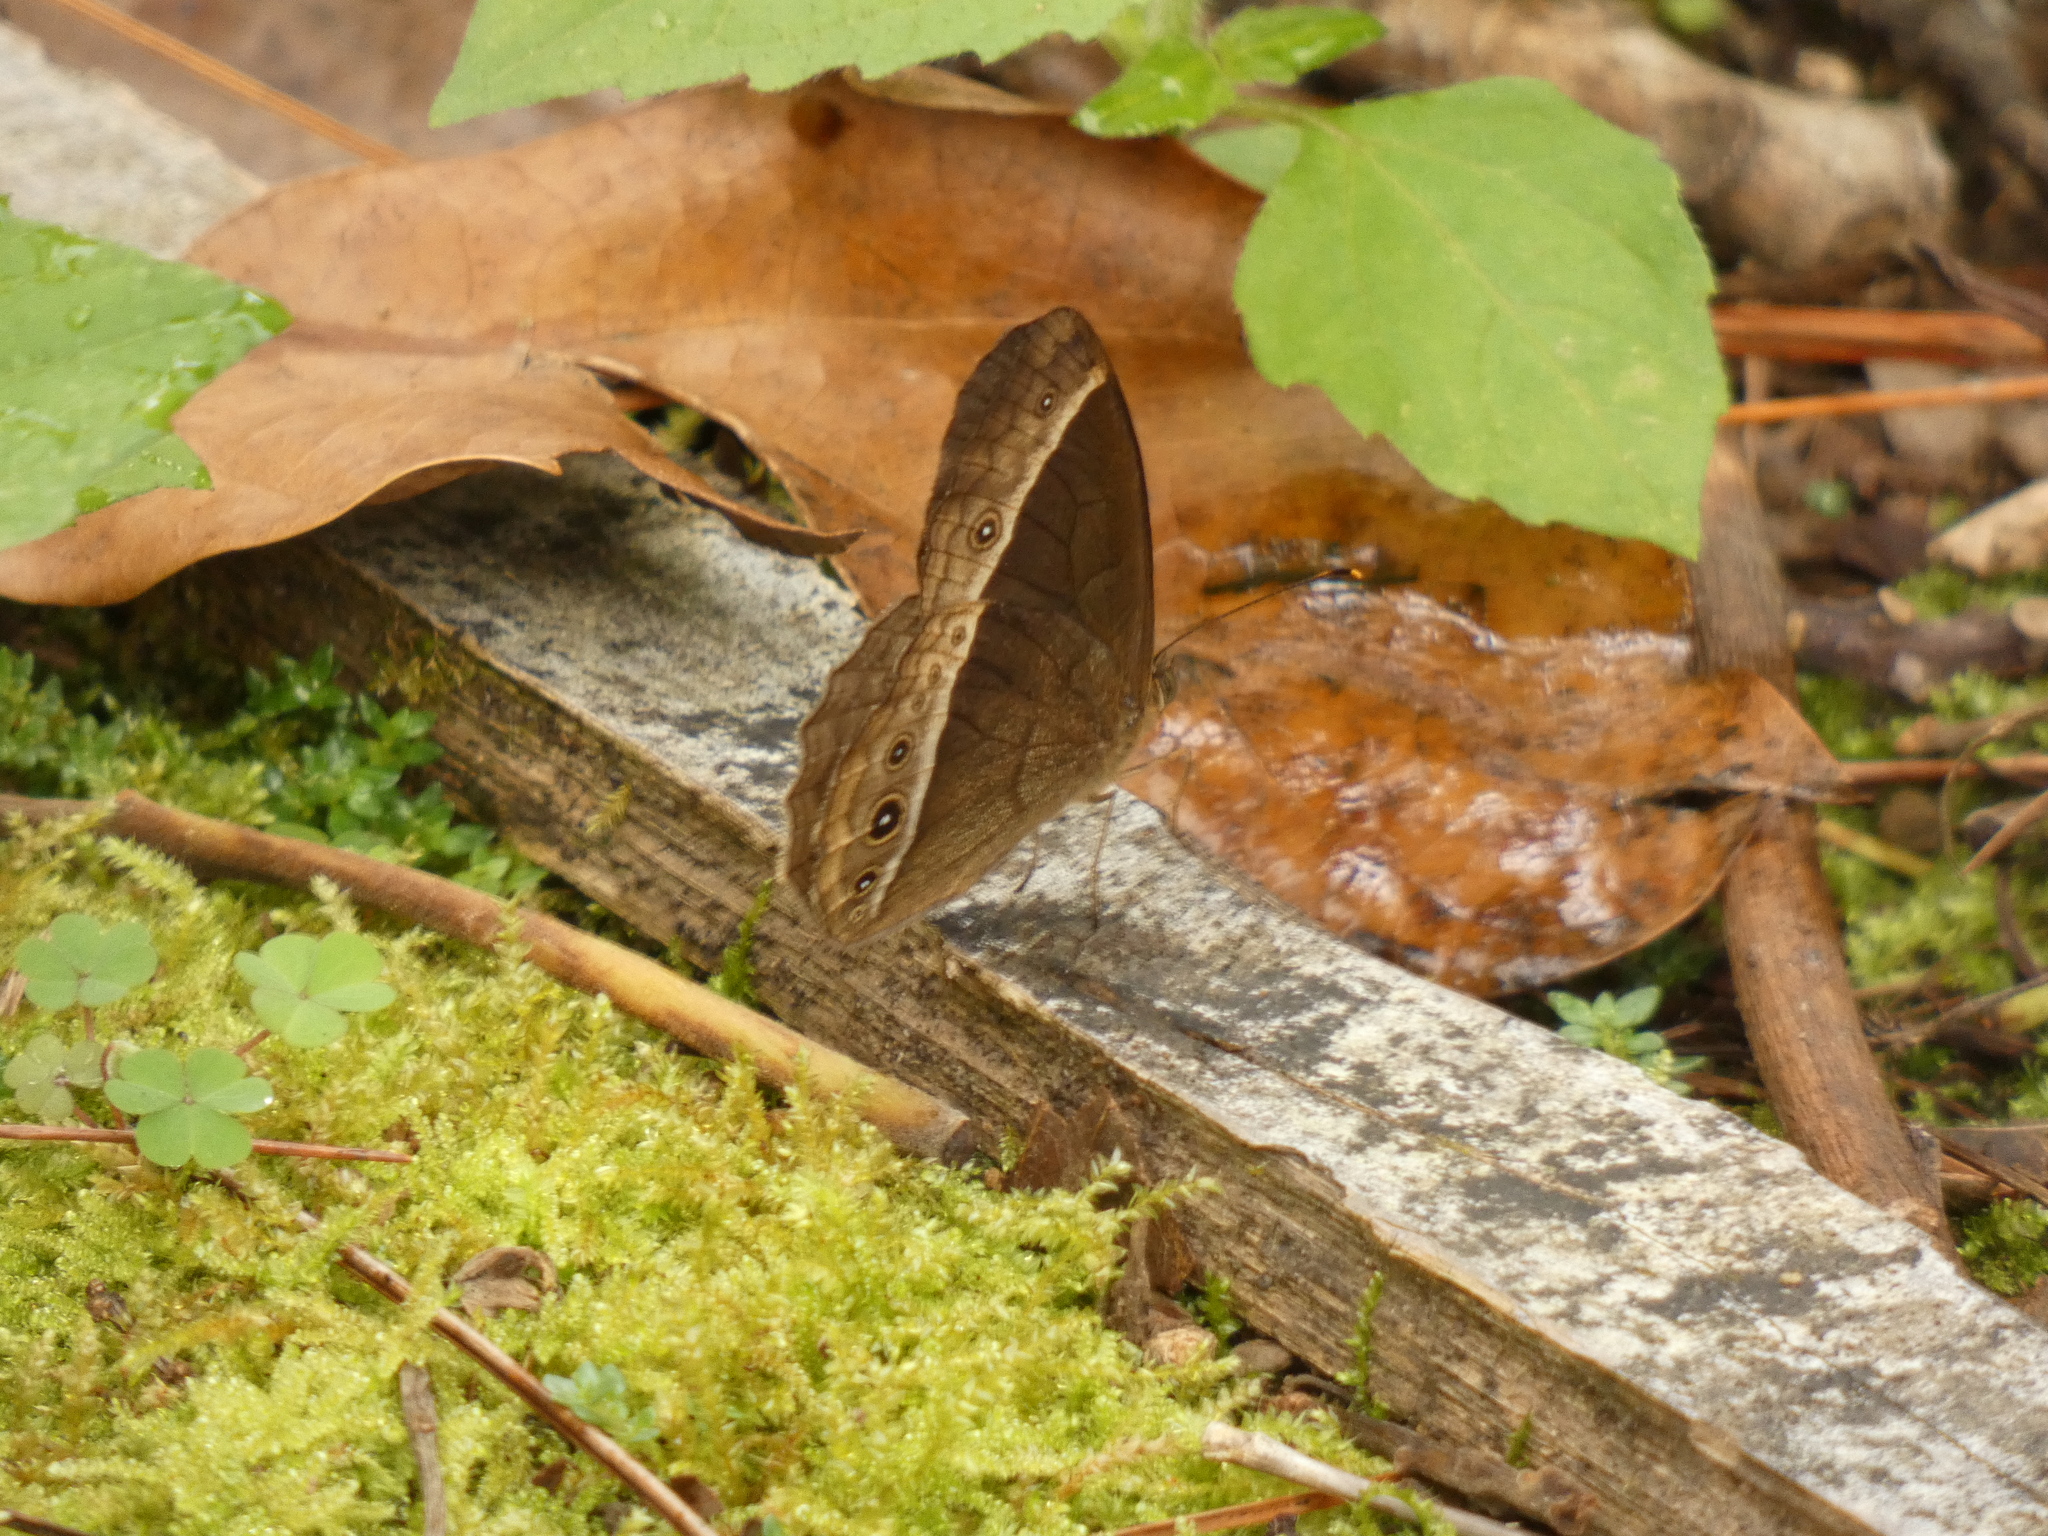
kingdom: Animalia
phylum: Arthropoda
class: Insecta
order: Lepidoptera
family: Nymphalidae
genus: Mycalesis
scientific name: Mycalesis sudra
